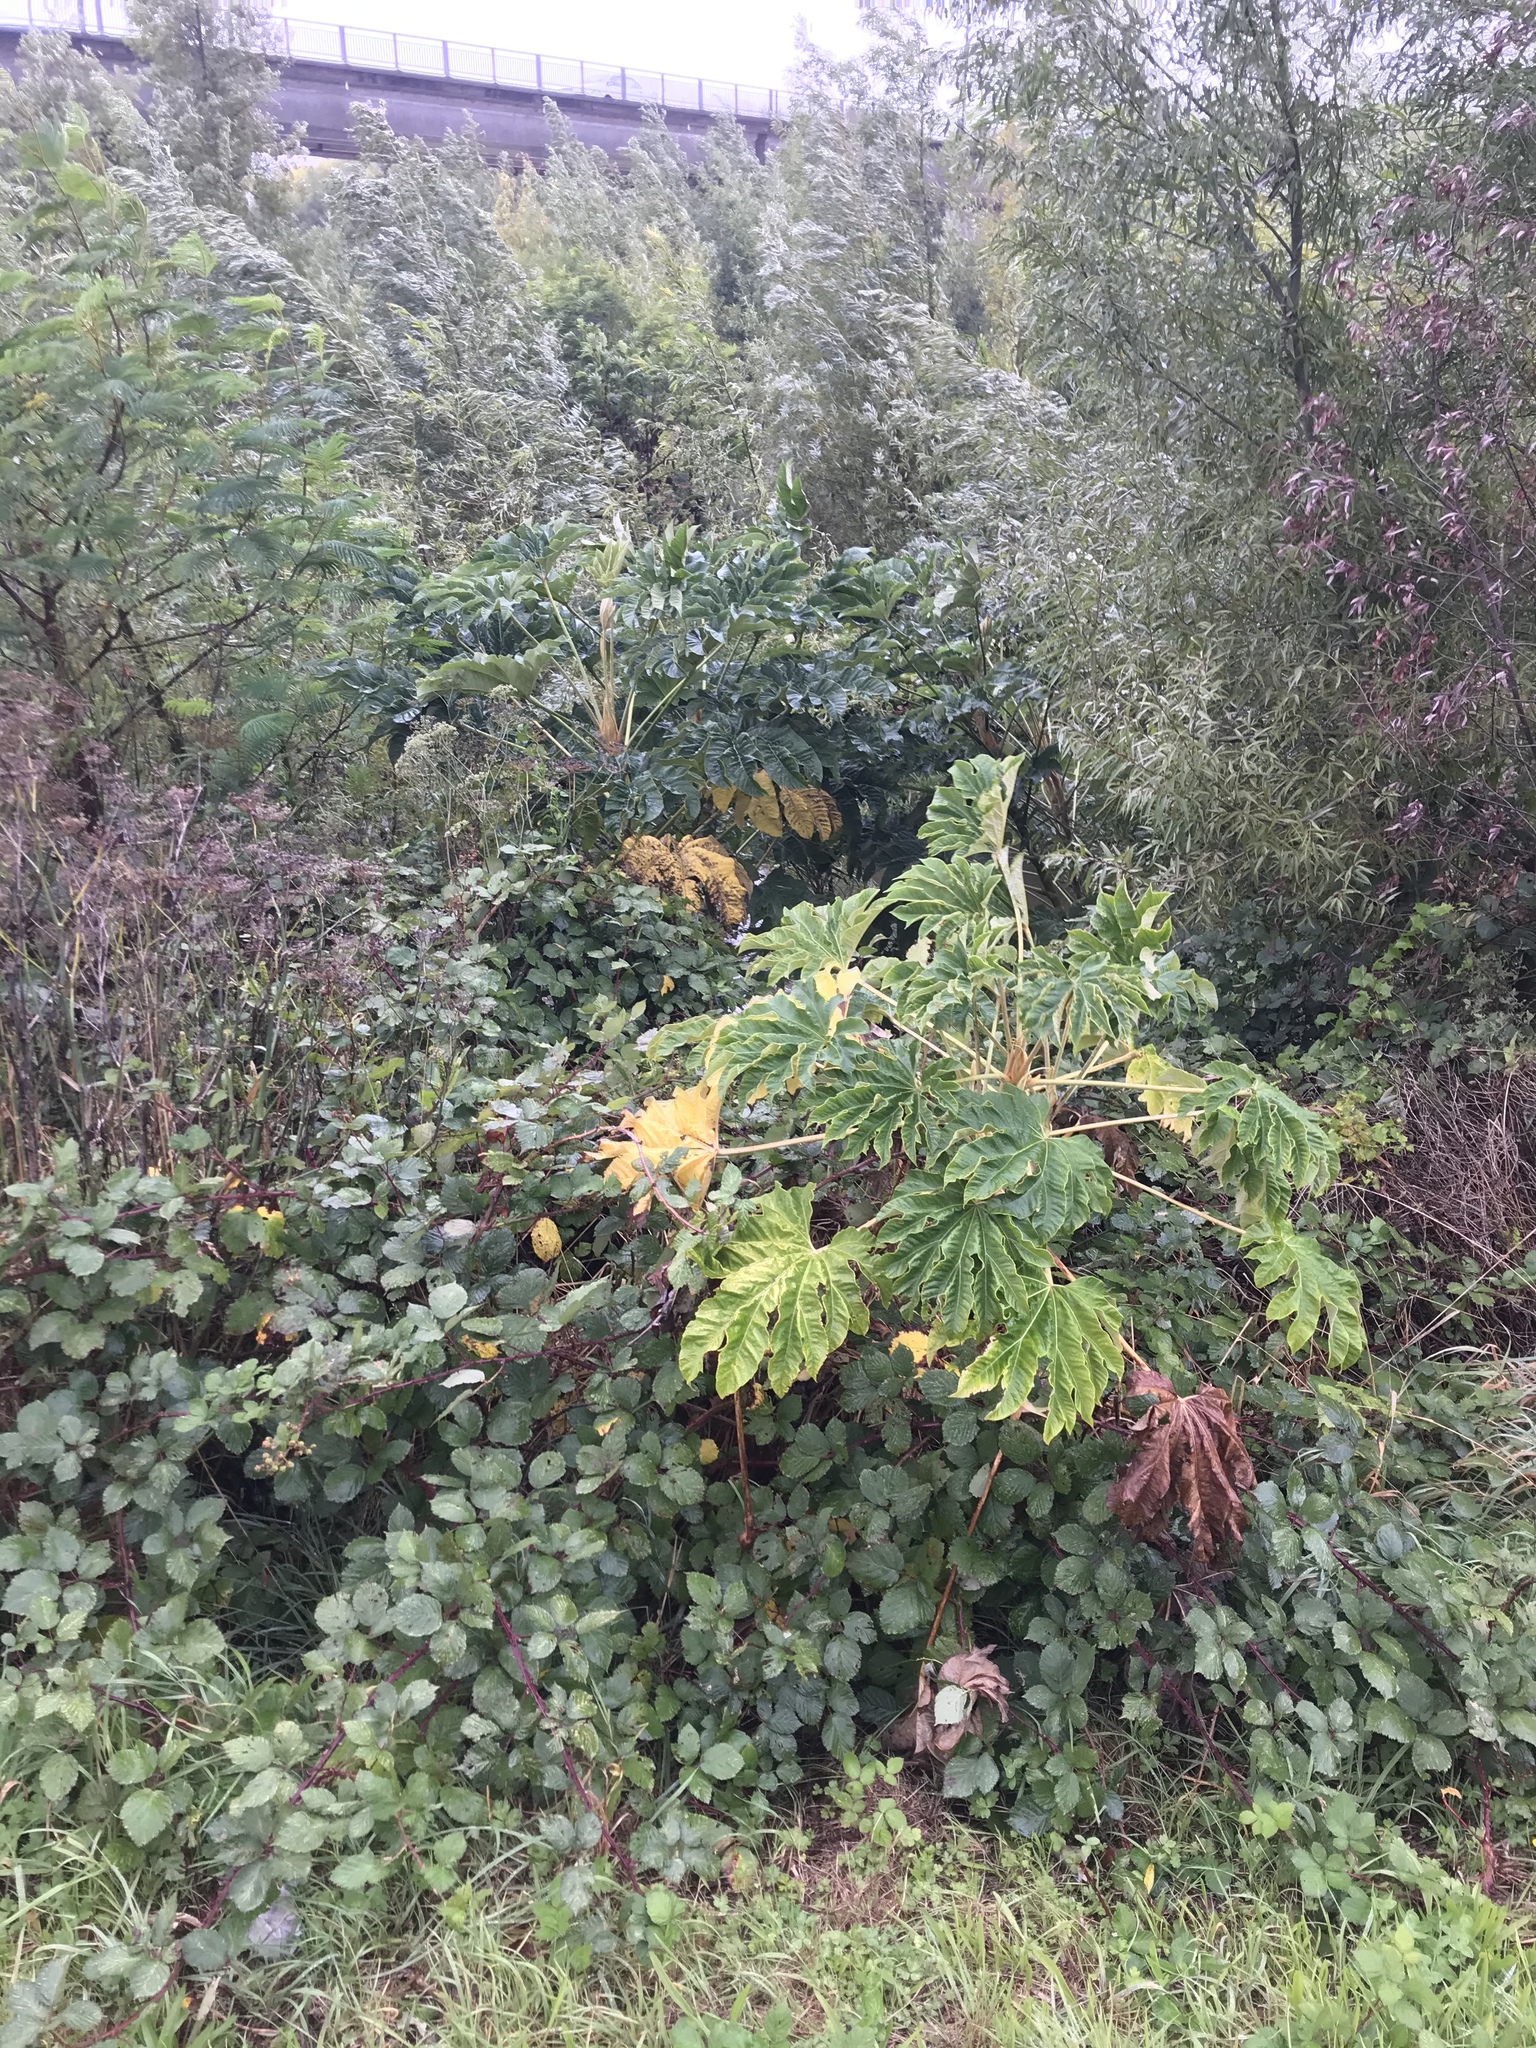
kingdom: Plantae
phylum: Tracheophyta
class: Magnoliopsida
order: Apiales
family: Araliaceae
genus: Tetrapanax
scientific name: Tetrapanax papyrifer
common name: Rice-paper plant
